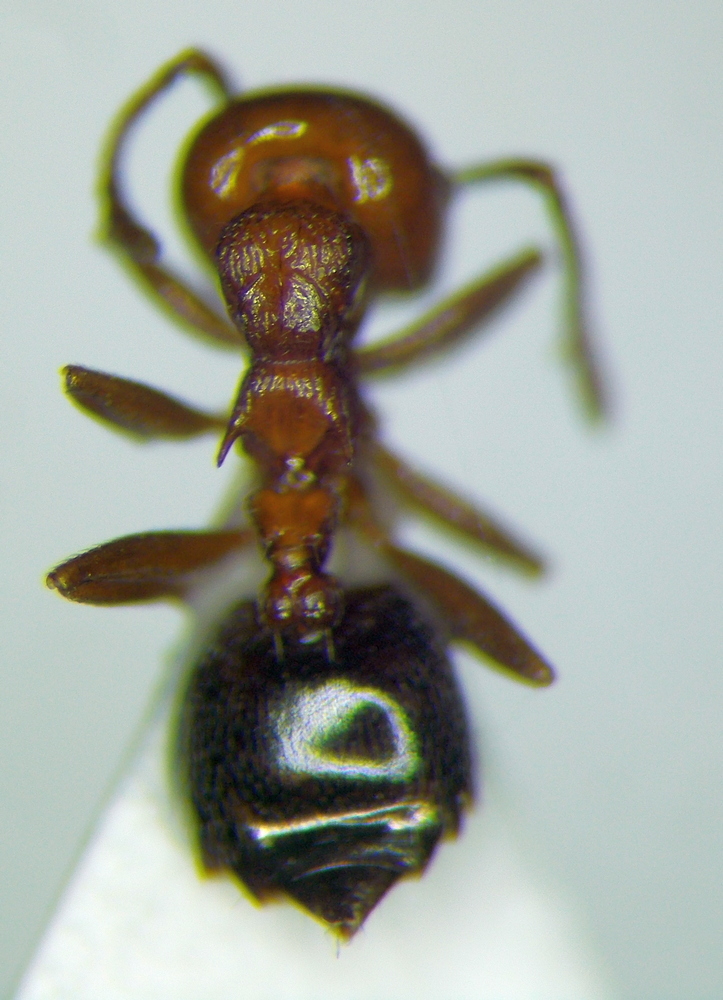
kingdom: Animalia
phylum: Arthropoda
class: Insecta
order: Hymenoptera
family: Formicidae
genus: Crematogaster
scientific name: Crematogaster schmidti
